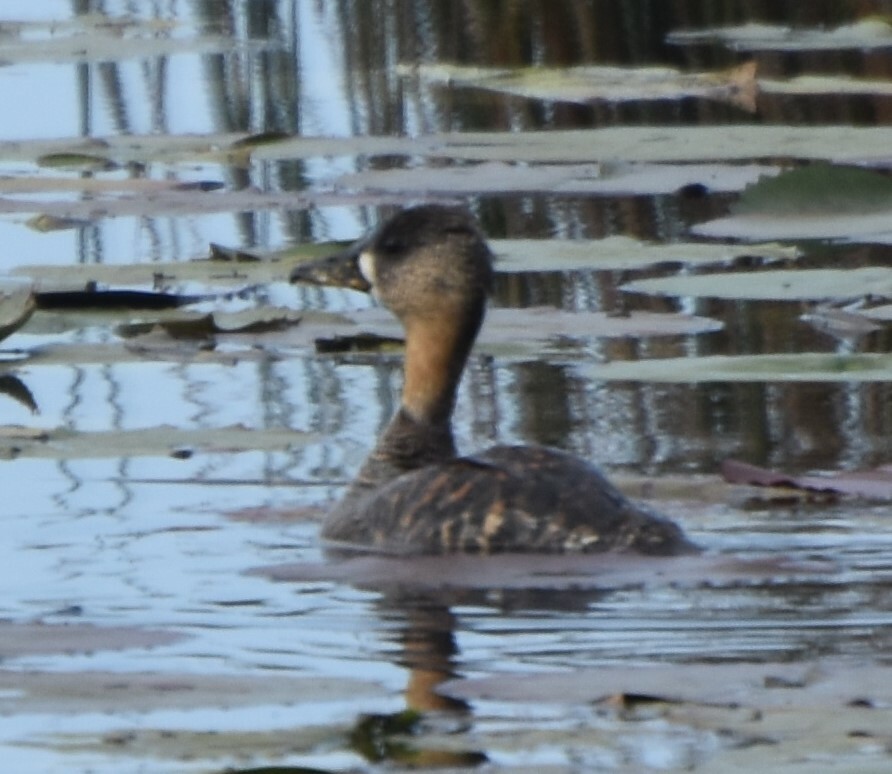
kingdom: Animalia
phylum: Chordata
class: Aves
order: Anseriformes
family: Anatidae
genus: Thalassornis
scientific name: Thalassornis leuconotus
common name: White-backed duck
